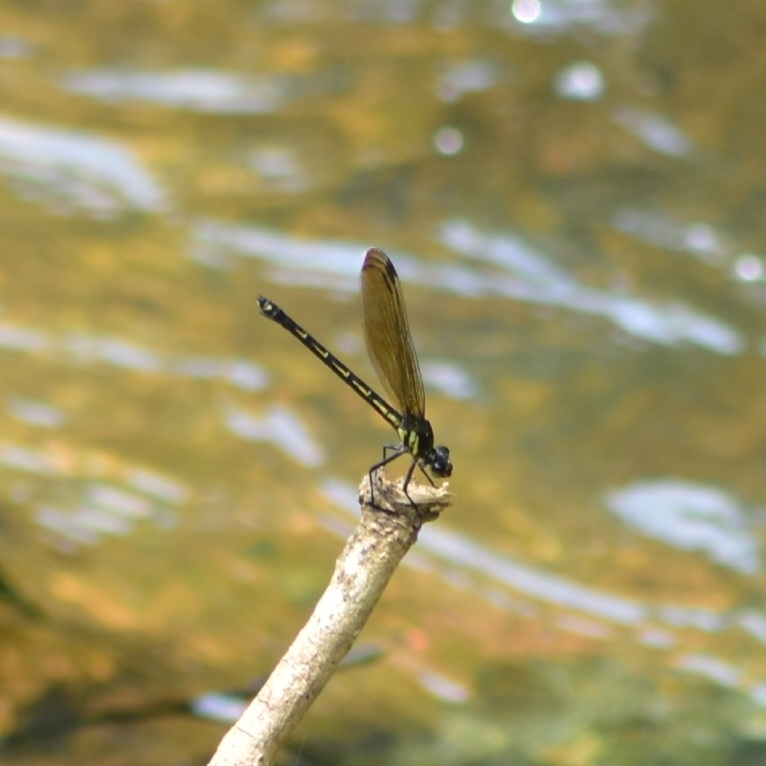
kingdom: Animalia
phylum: Arthropoda
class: Insecta
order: Odonata
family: Euphaeidae
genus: Dysphaea
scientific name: Dysphaea ethela
